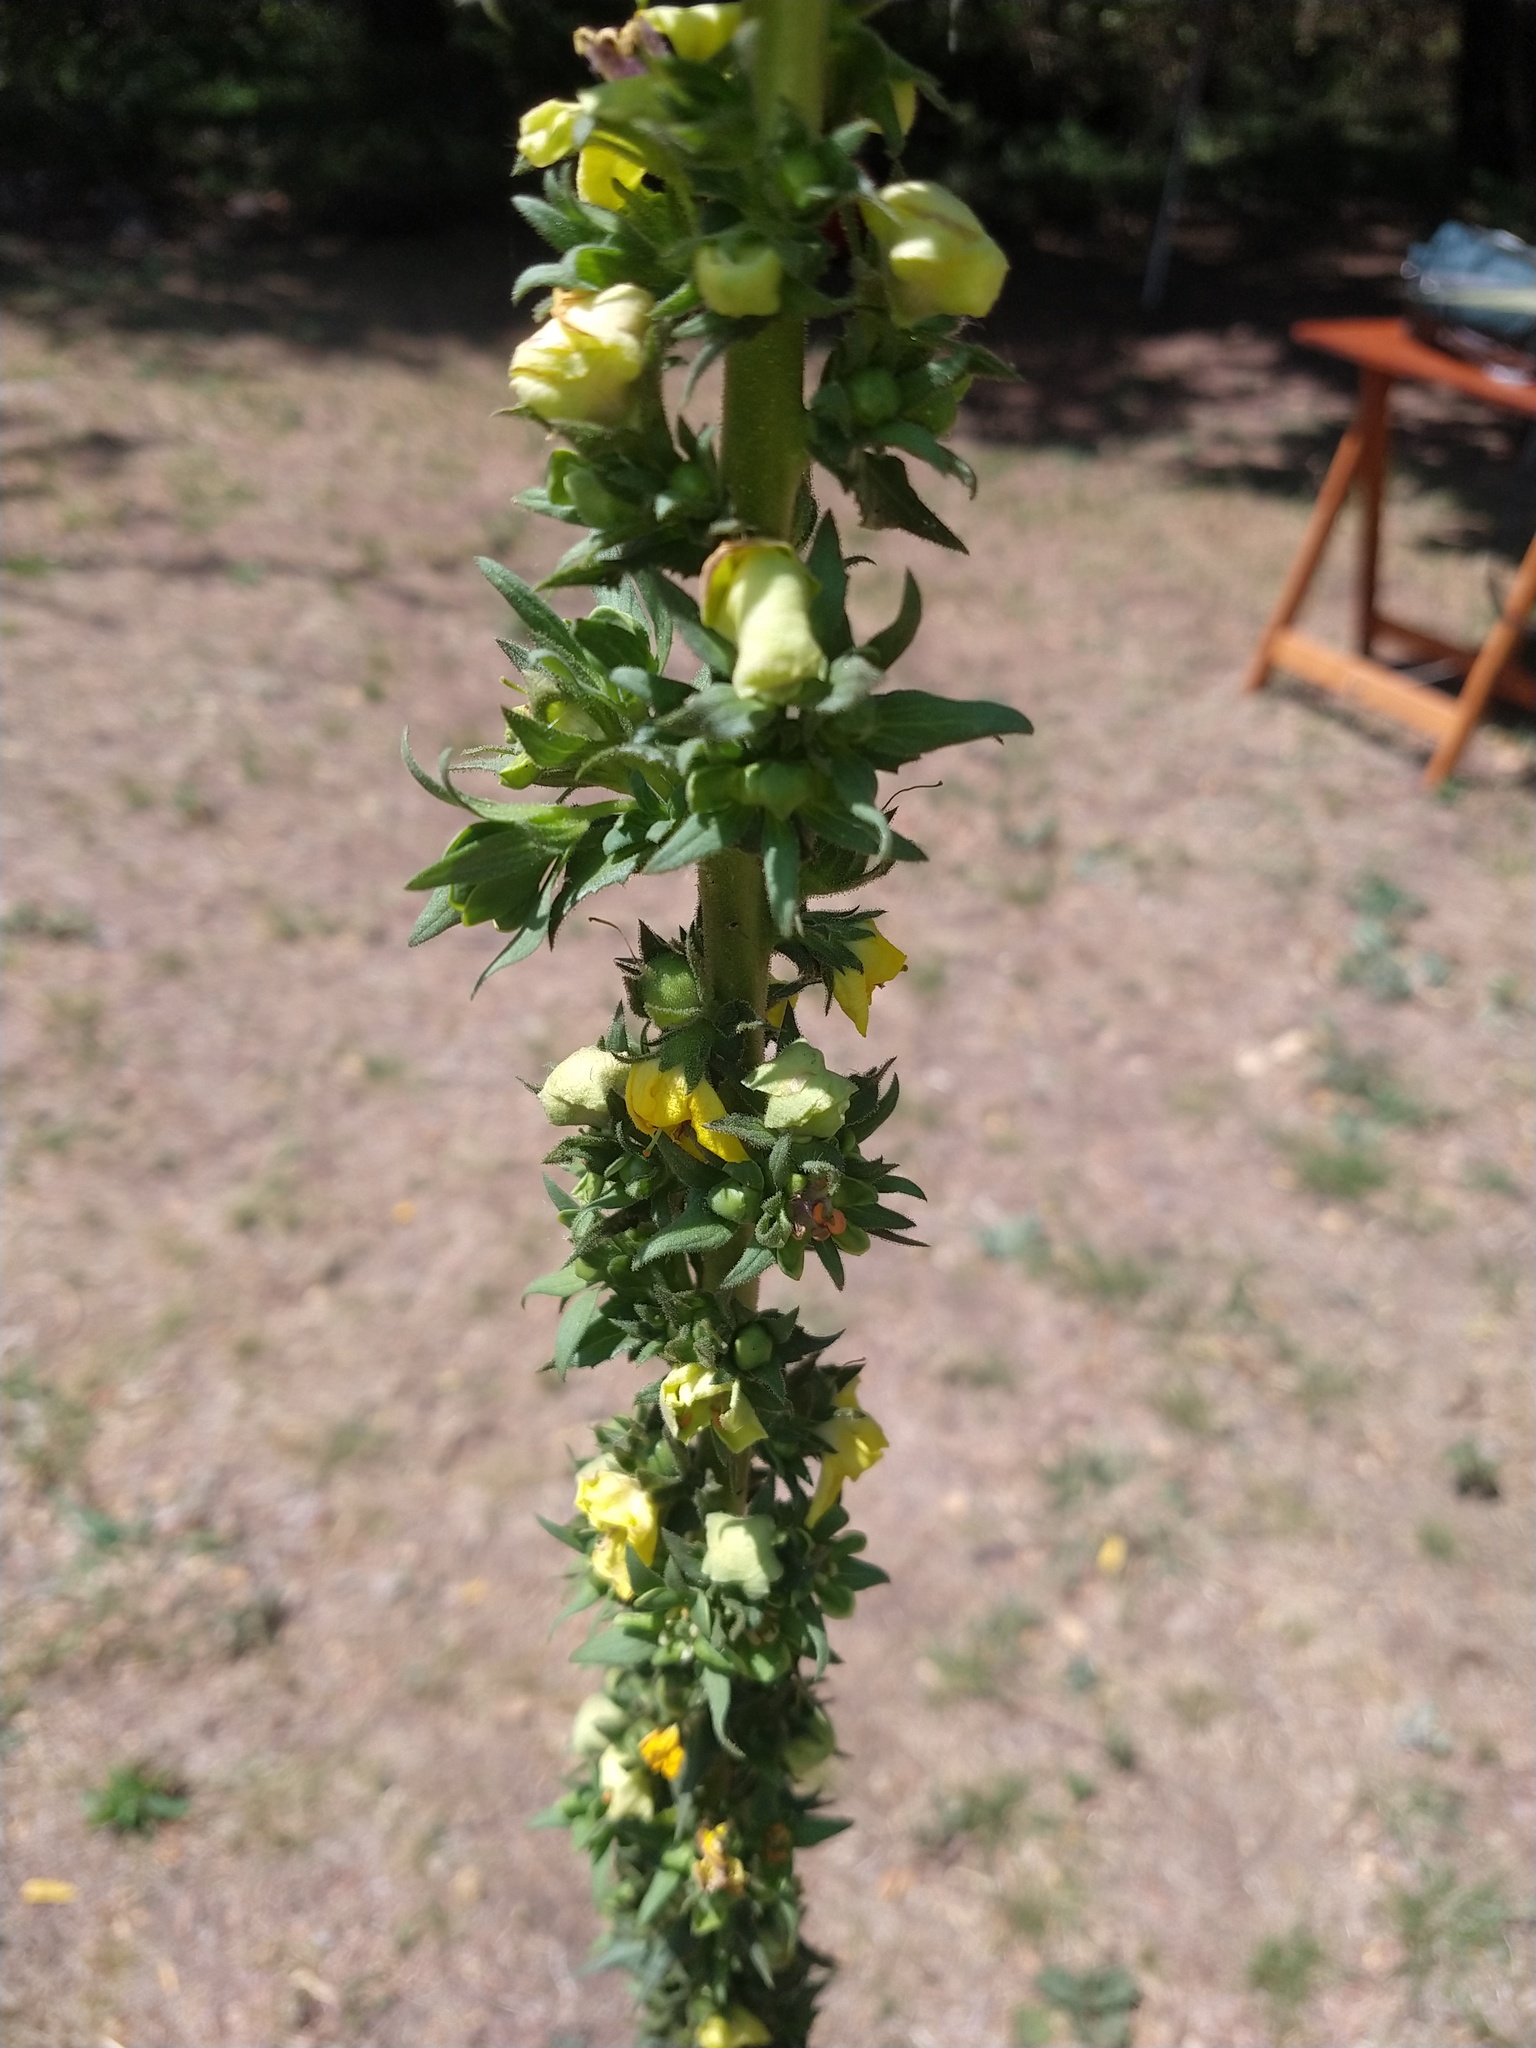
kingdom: Plantae
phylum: Tracheophyta
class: Magnoliopsida
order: Lamiales
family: Scrophulariaceae
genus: Verbascum
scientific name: Verbascum virgatum
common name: Twiggy mullein
